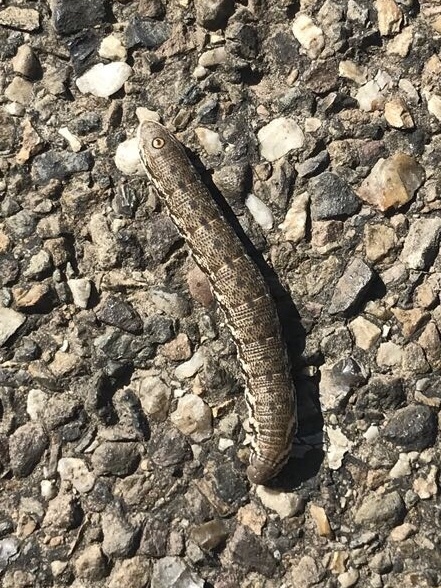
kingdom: Animalia
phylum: Arthropoda
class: Insecta
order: Lepidoptera
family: Sphingidae
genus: Proserpinus
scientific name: Proserpinus proserpina
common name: Willowherb hawkmoth
